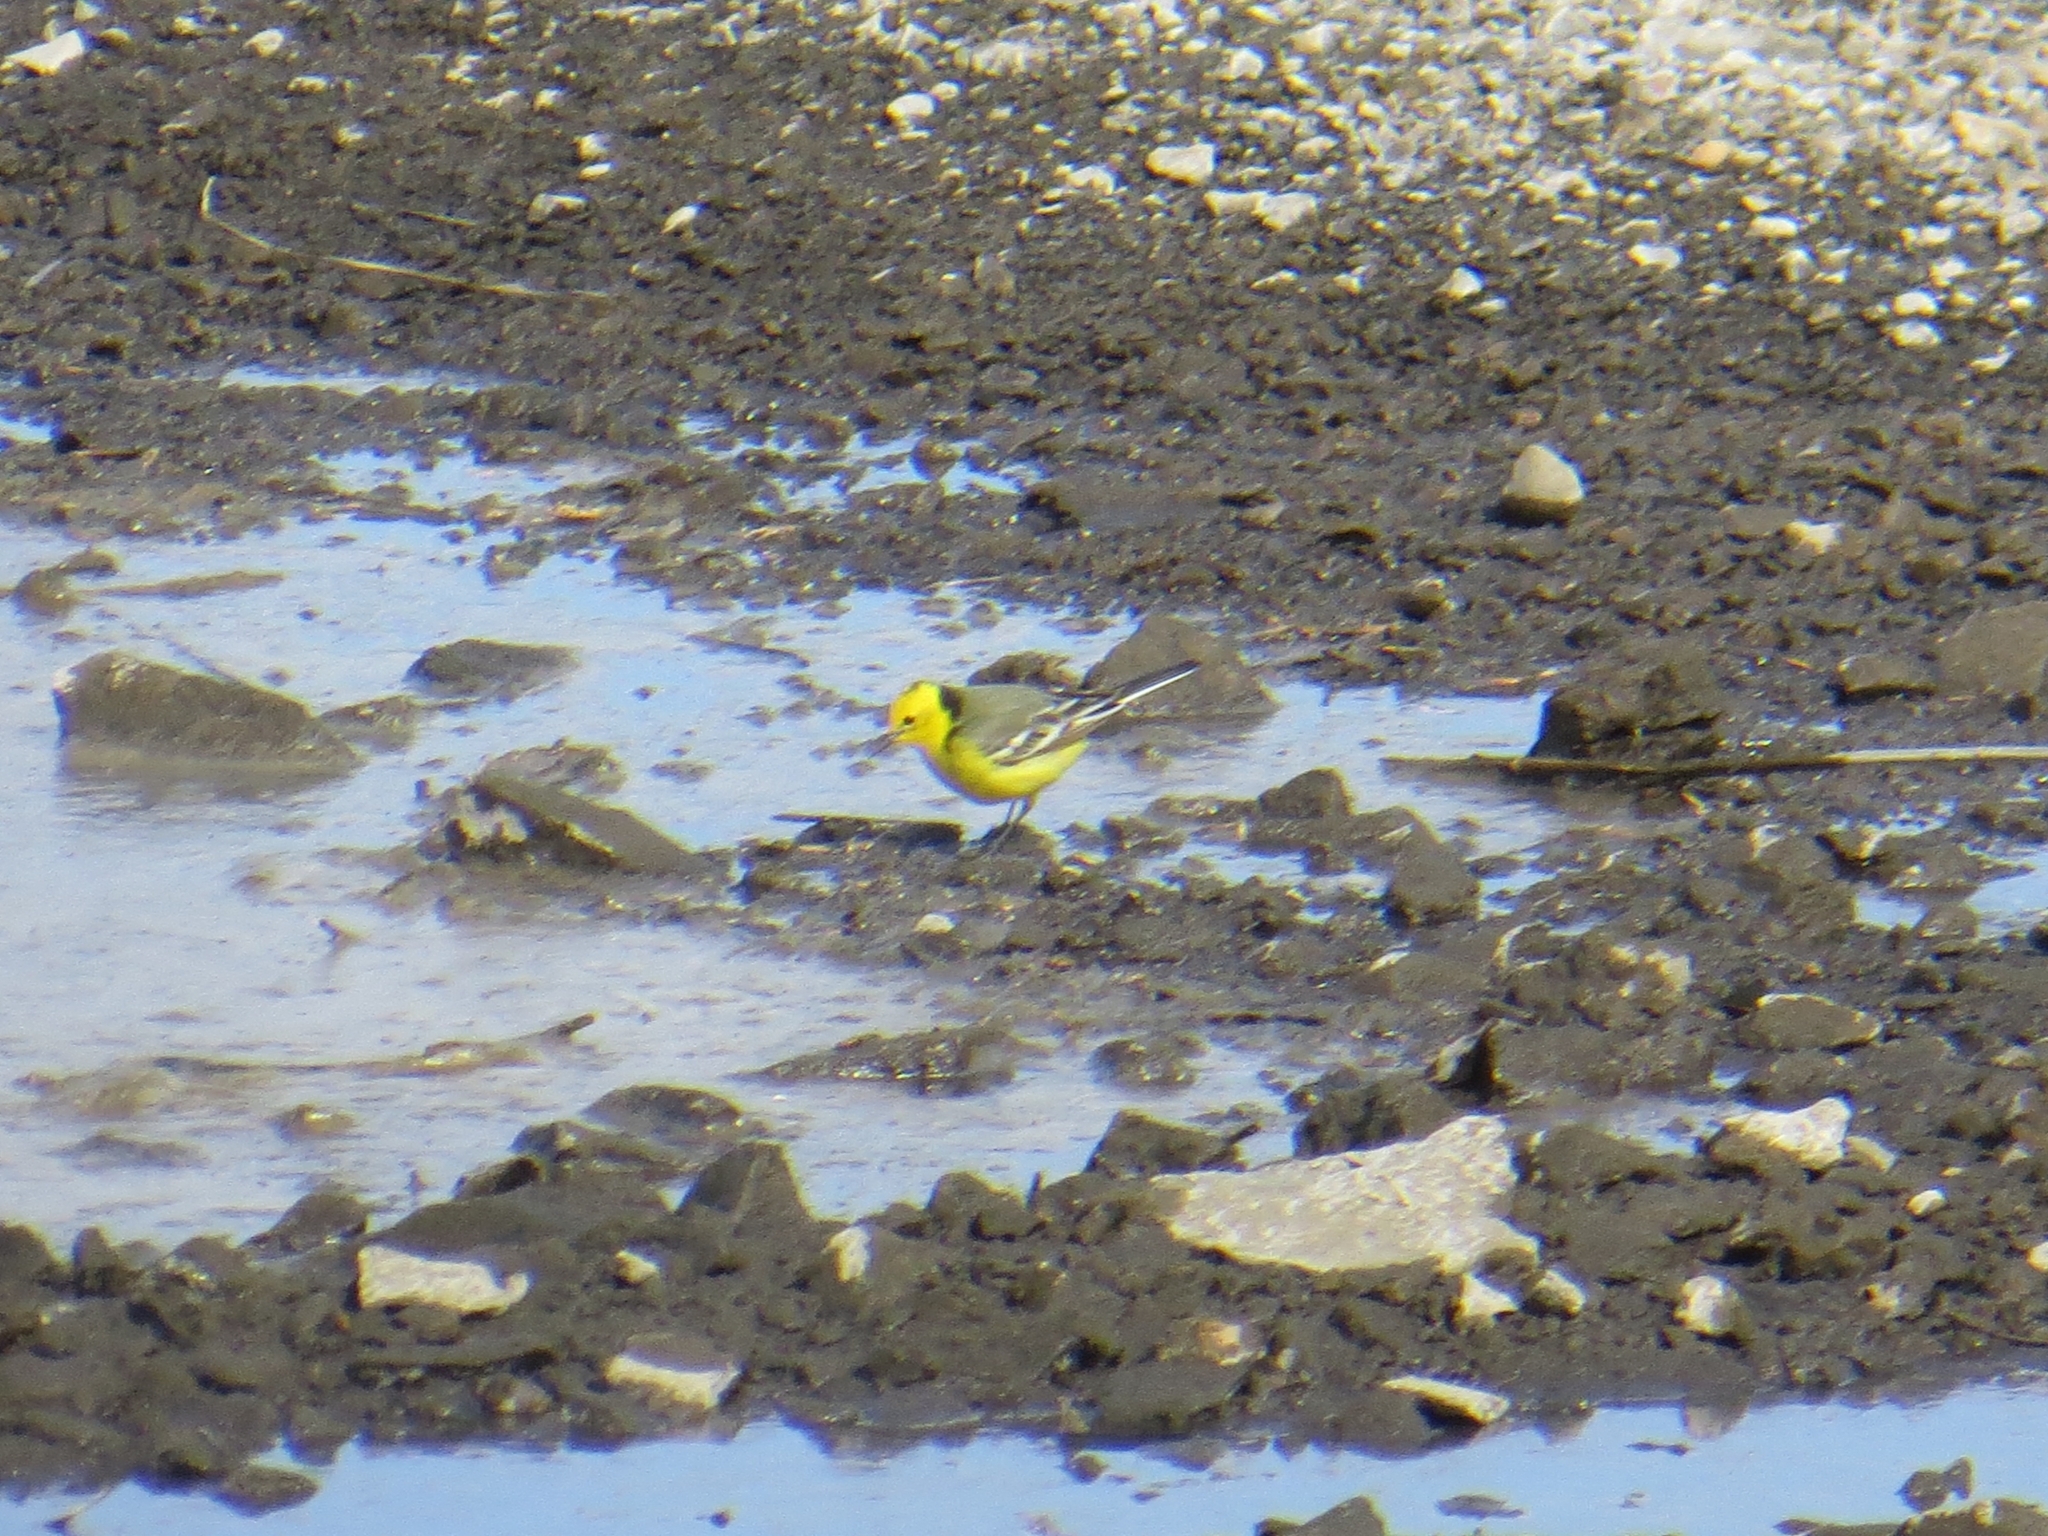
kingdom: Animalia
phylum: Chordata
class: Aves
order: Passeriformes
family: Motacillidae
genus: Motacilla
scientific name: Motacilla citreola
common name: Citrine wagtail
